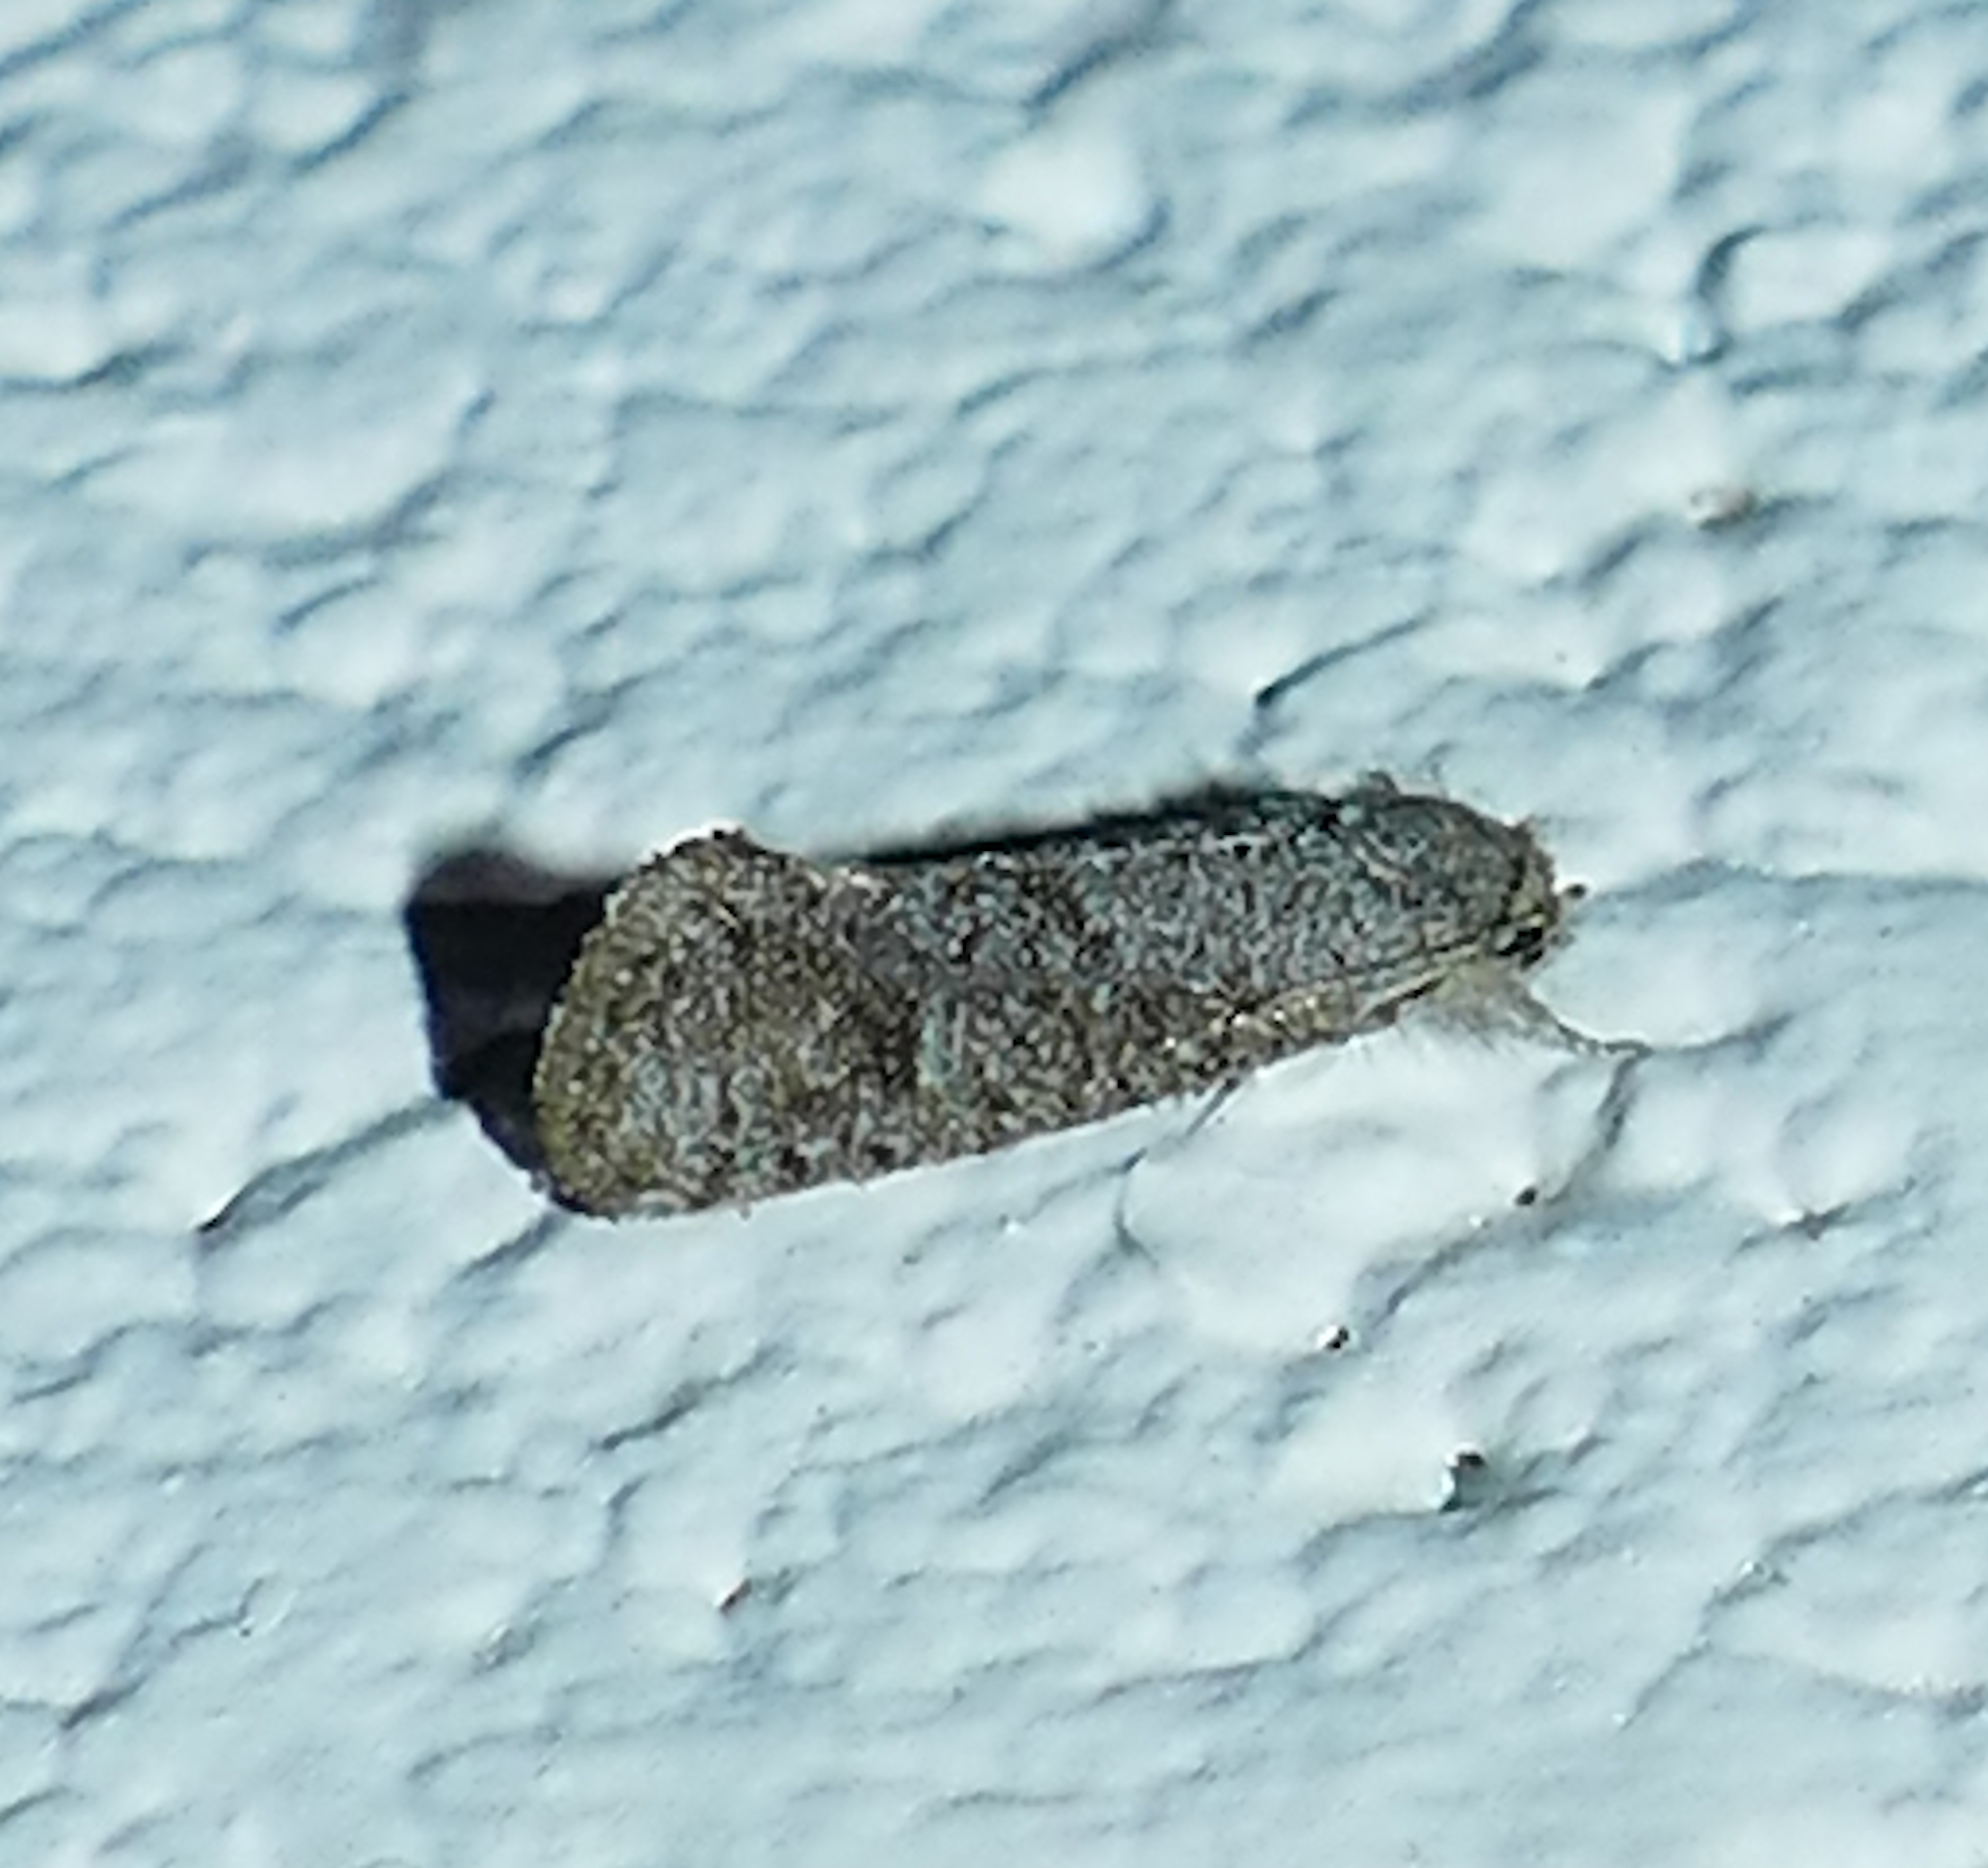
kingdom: Animalia
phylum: Arthropoda
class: Insecta
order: Lepidoptera
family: Tineidae
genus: Acrolophus
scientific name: Acrolophus heppneri
